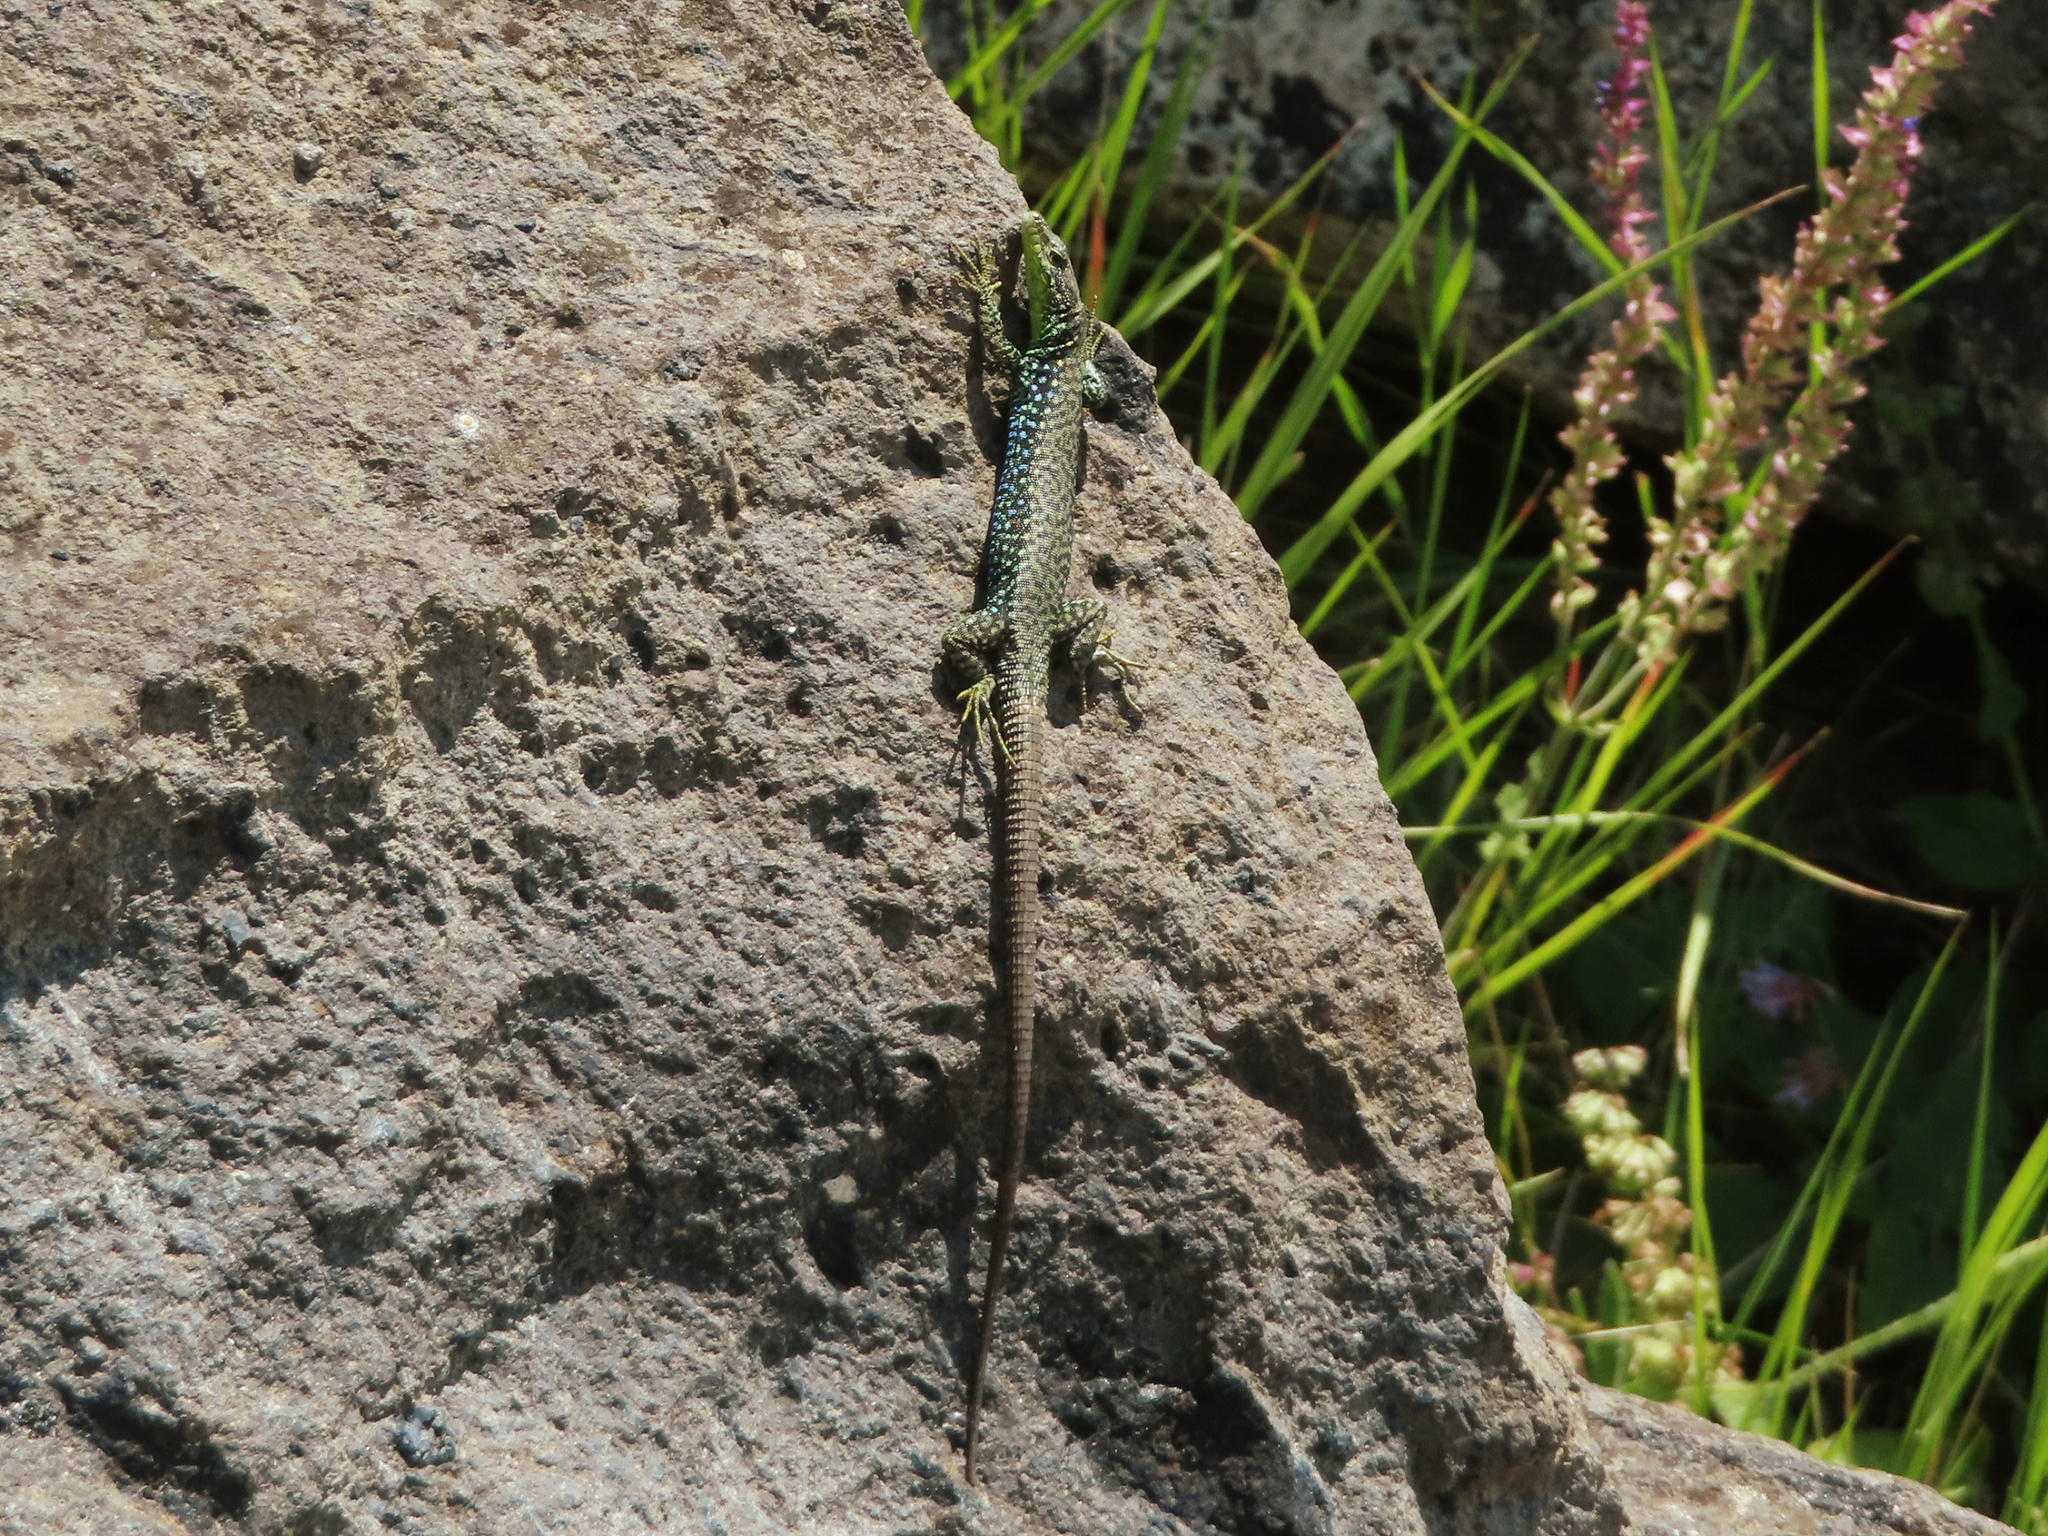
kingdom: Animalia
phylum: Chordata
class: Squamata
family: Lacertidae
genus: Darevskia
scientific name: Darevskia
